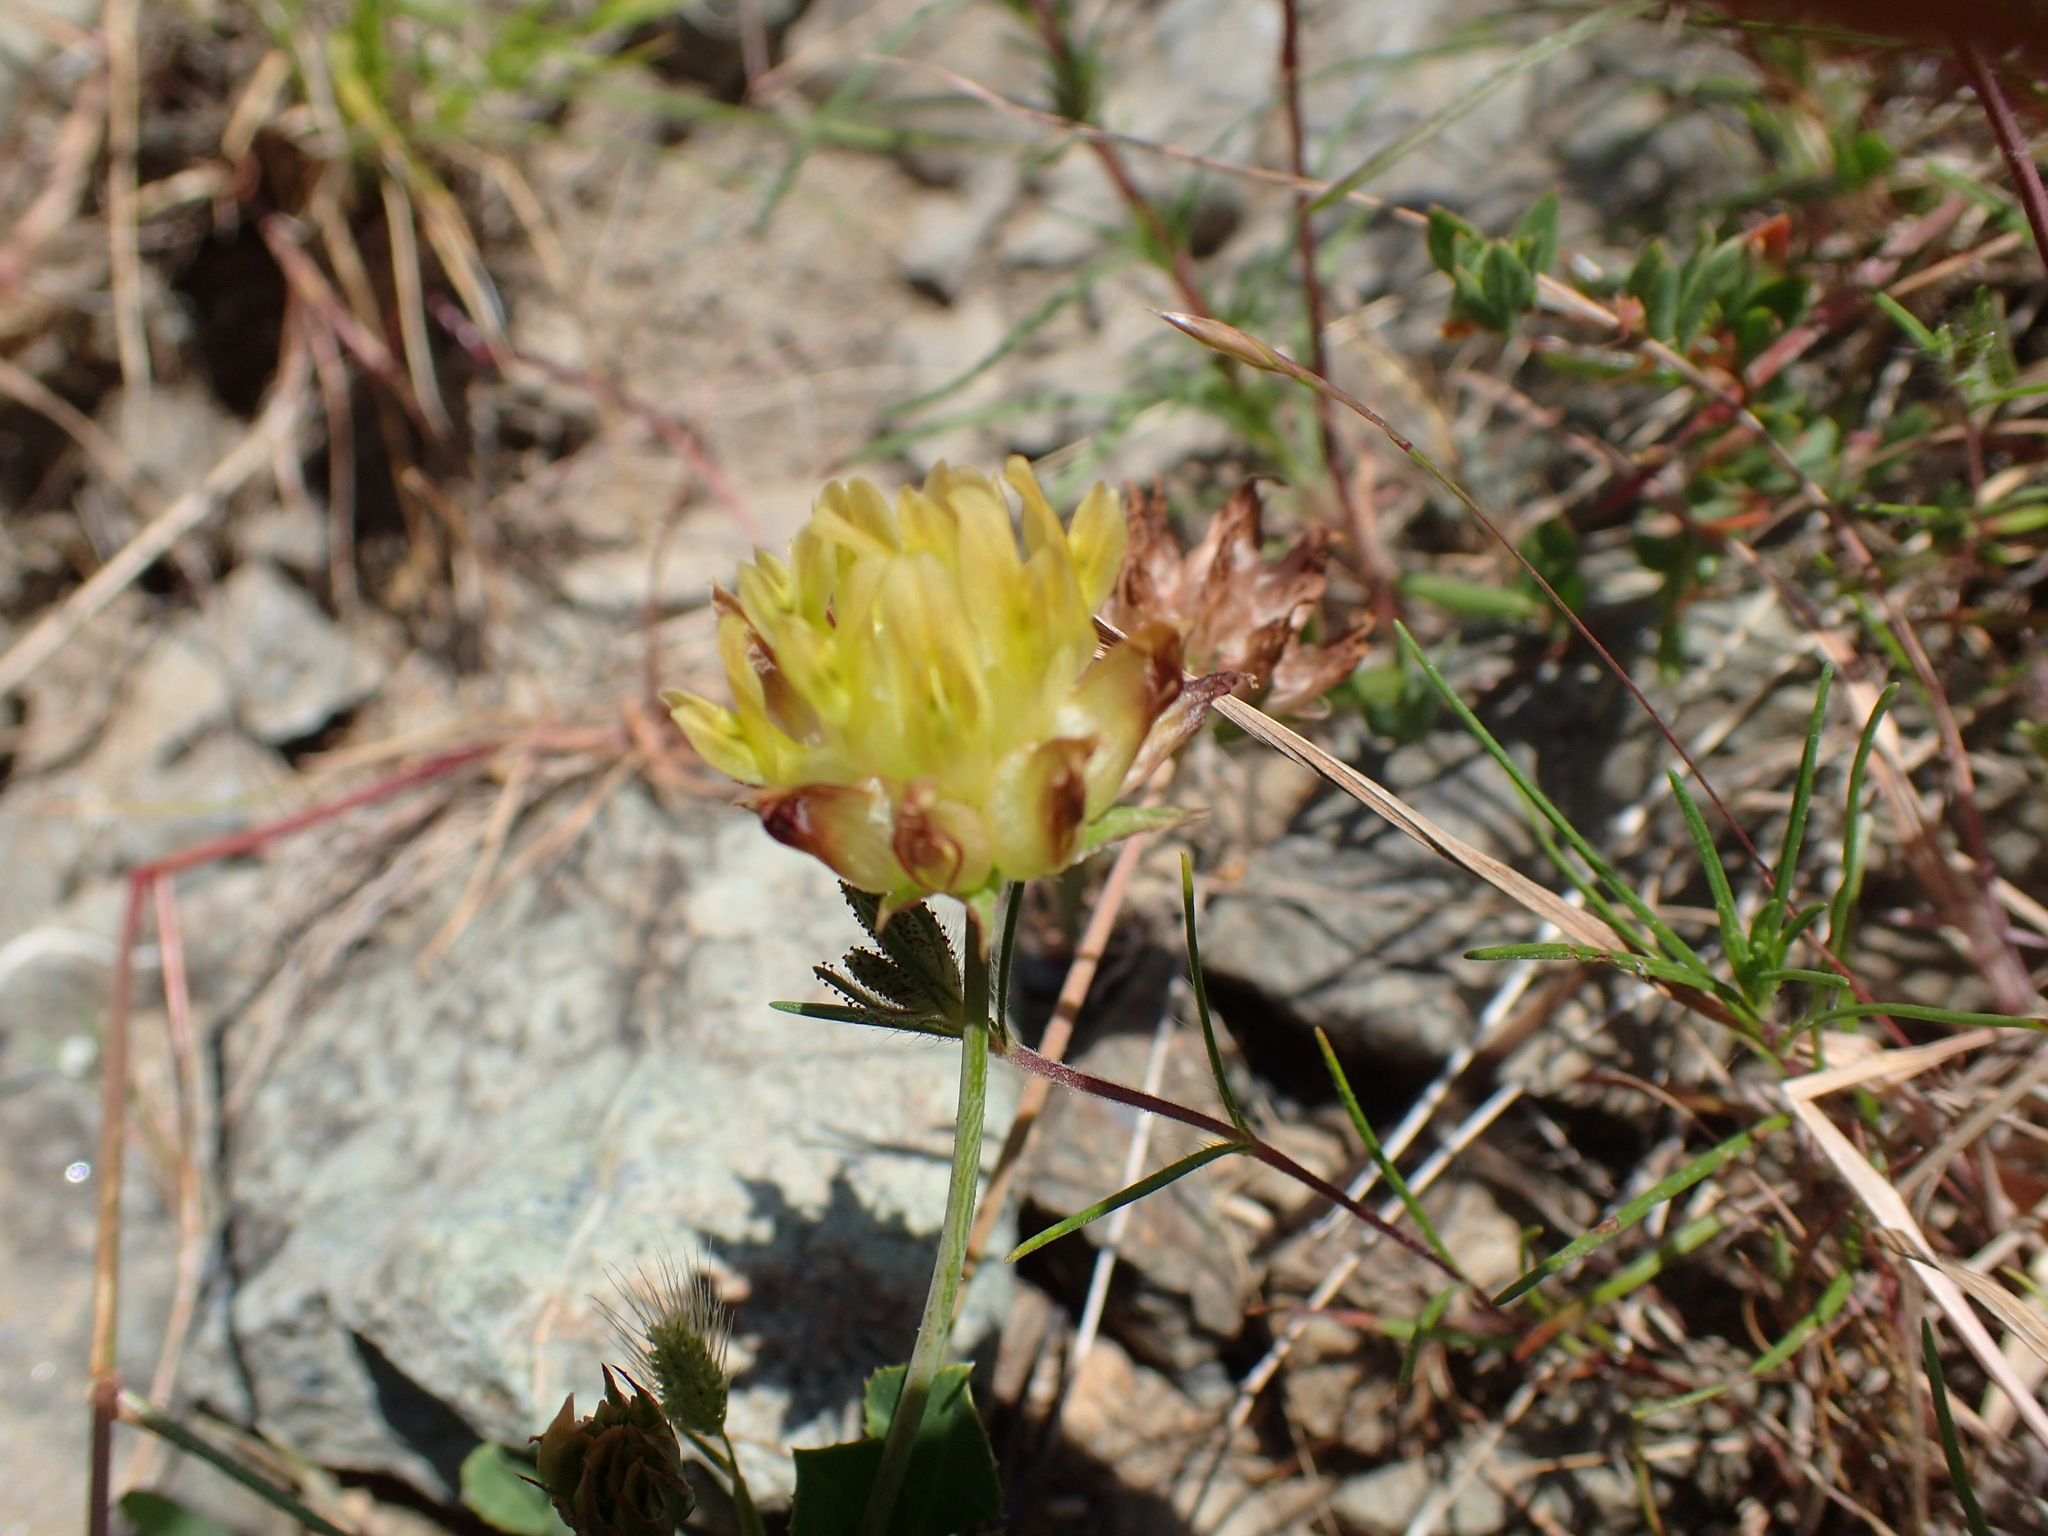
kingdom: Plantae
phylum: Tracheophyta
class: Magnoliopsida
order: Fabales
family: Fabaceae
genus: Trifolium
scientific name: Trifolium fucatum
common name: Puff clover
